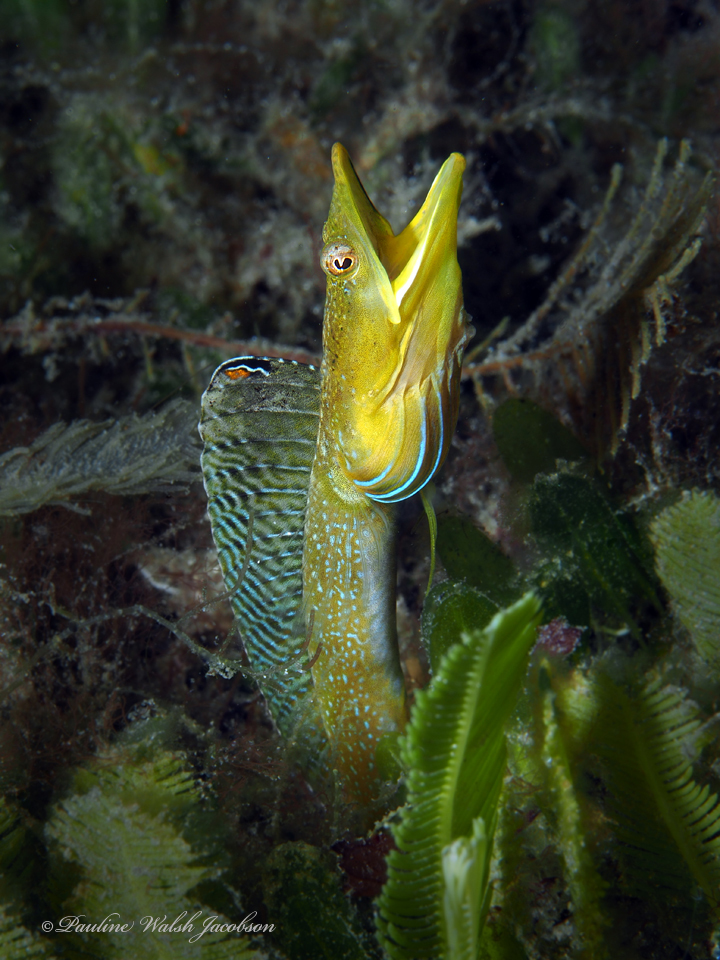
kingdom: Animalia
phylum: Chordata
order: Perciformes
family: Chaenopsidae
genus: Chaenopsis
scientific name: Chaenopsis ocellata
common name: Bluethroat pikeblenny
